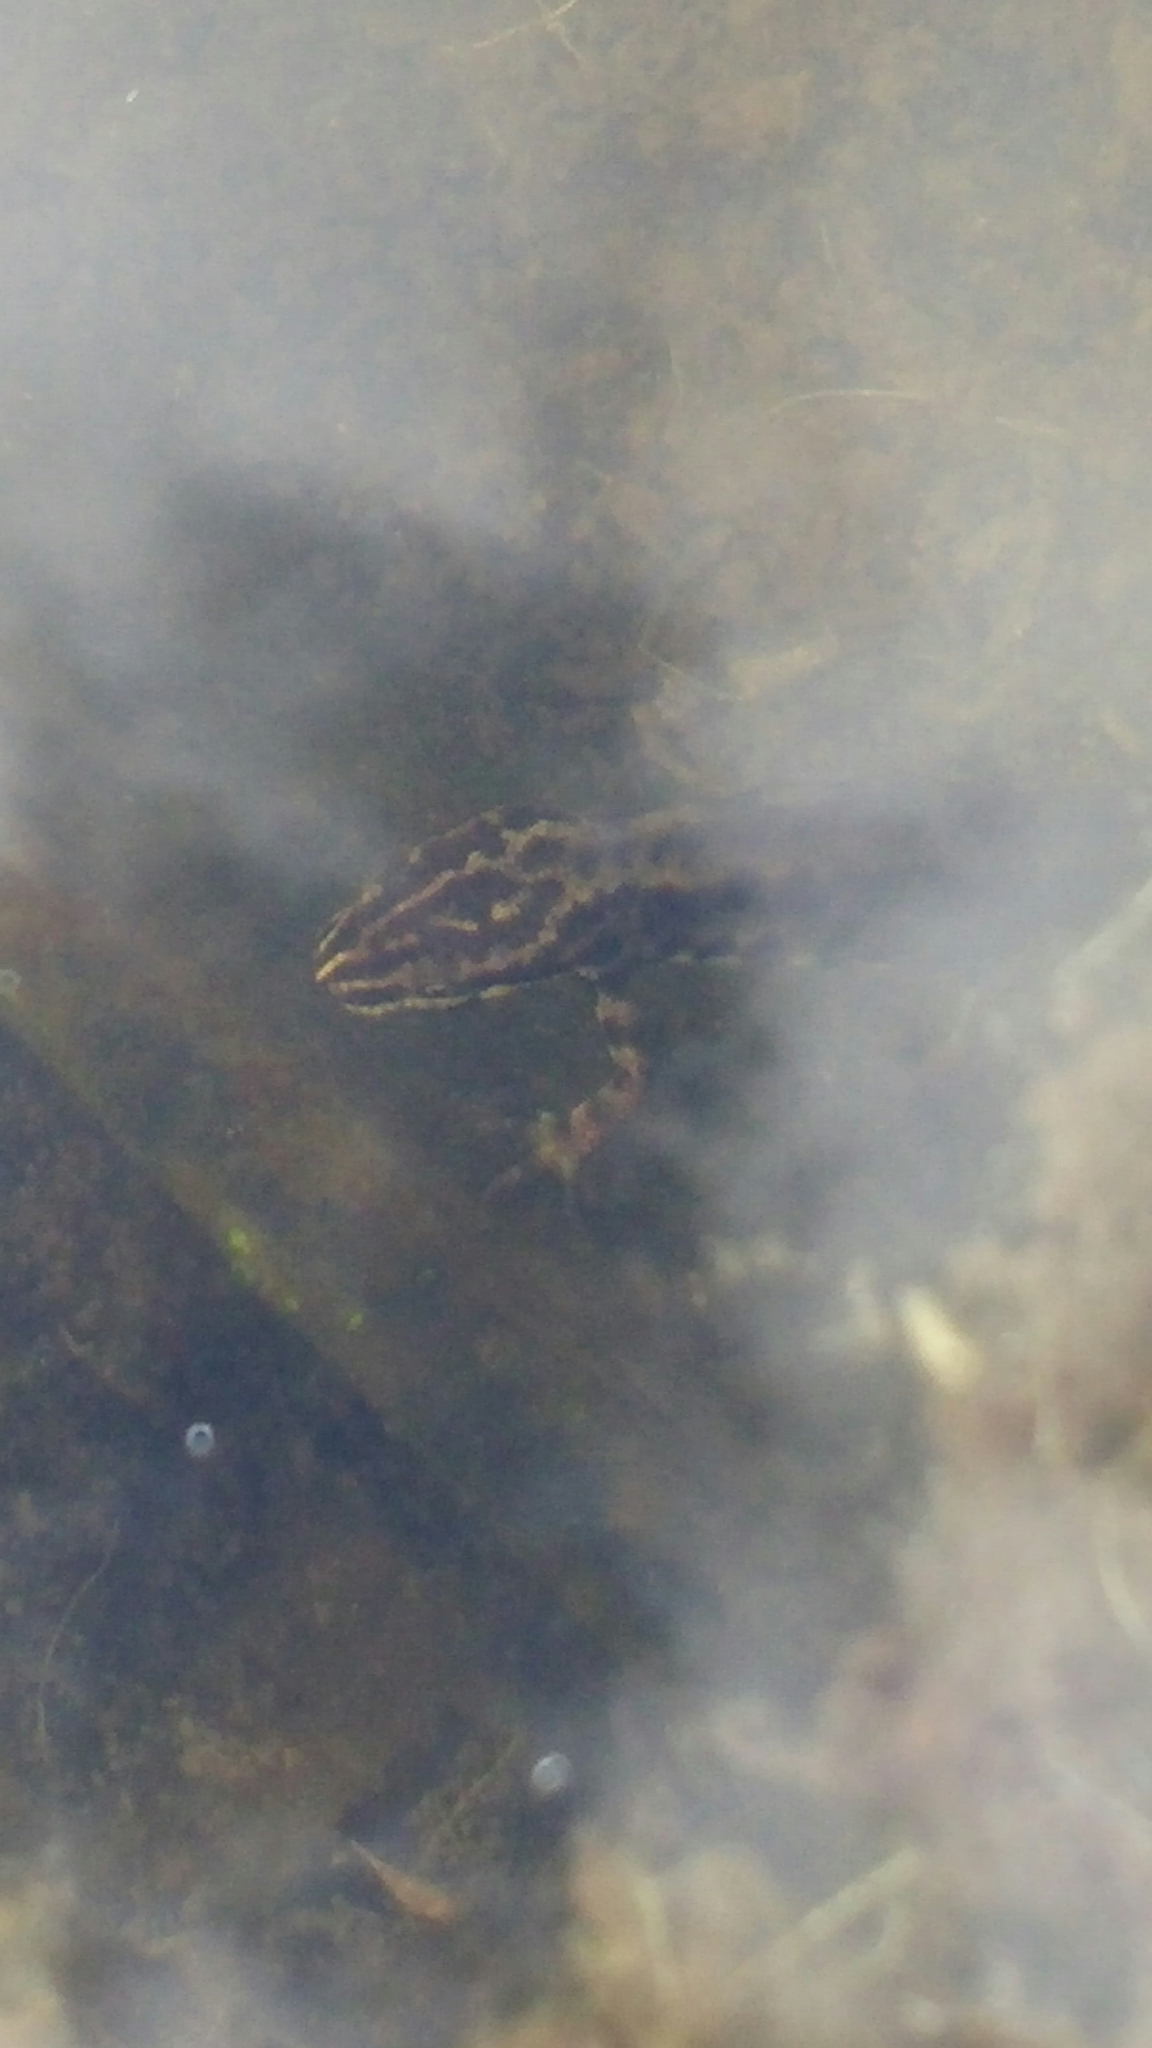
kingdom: Animalia
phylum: Chordata
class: Amphibia
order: Caudata
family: Salamandridae
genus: Lissotriton
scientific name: Lissotriton vulgaris
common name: Smooth newt
